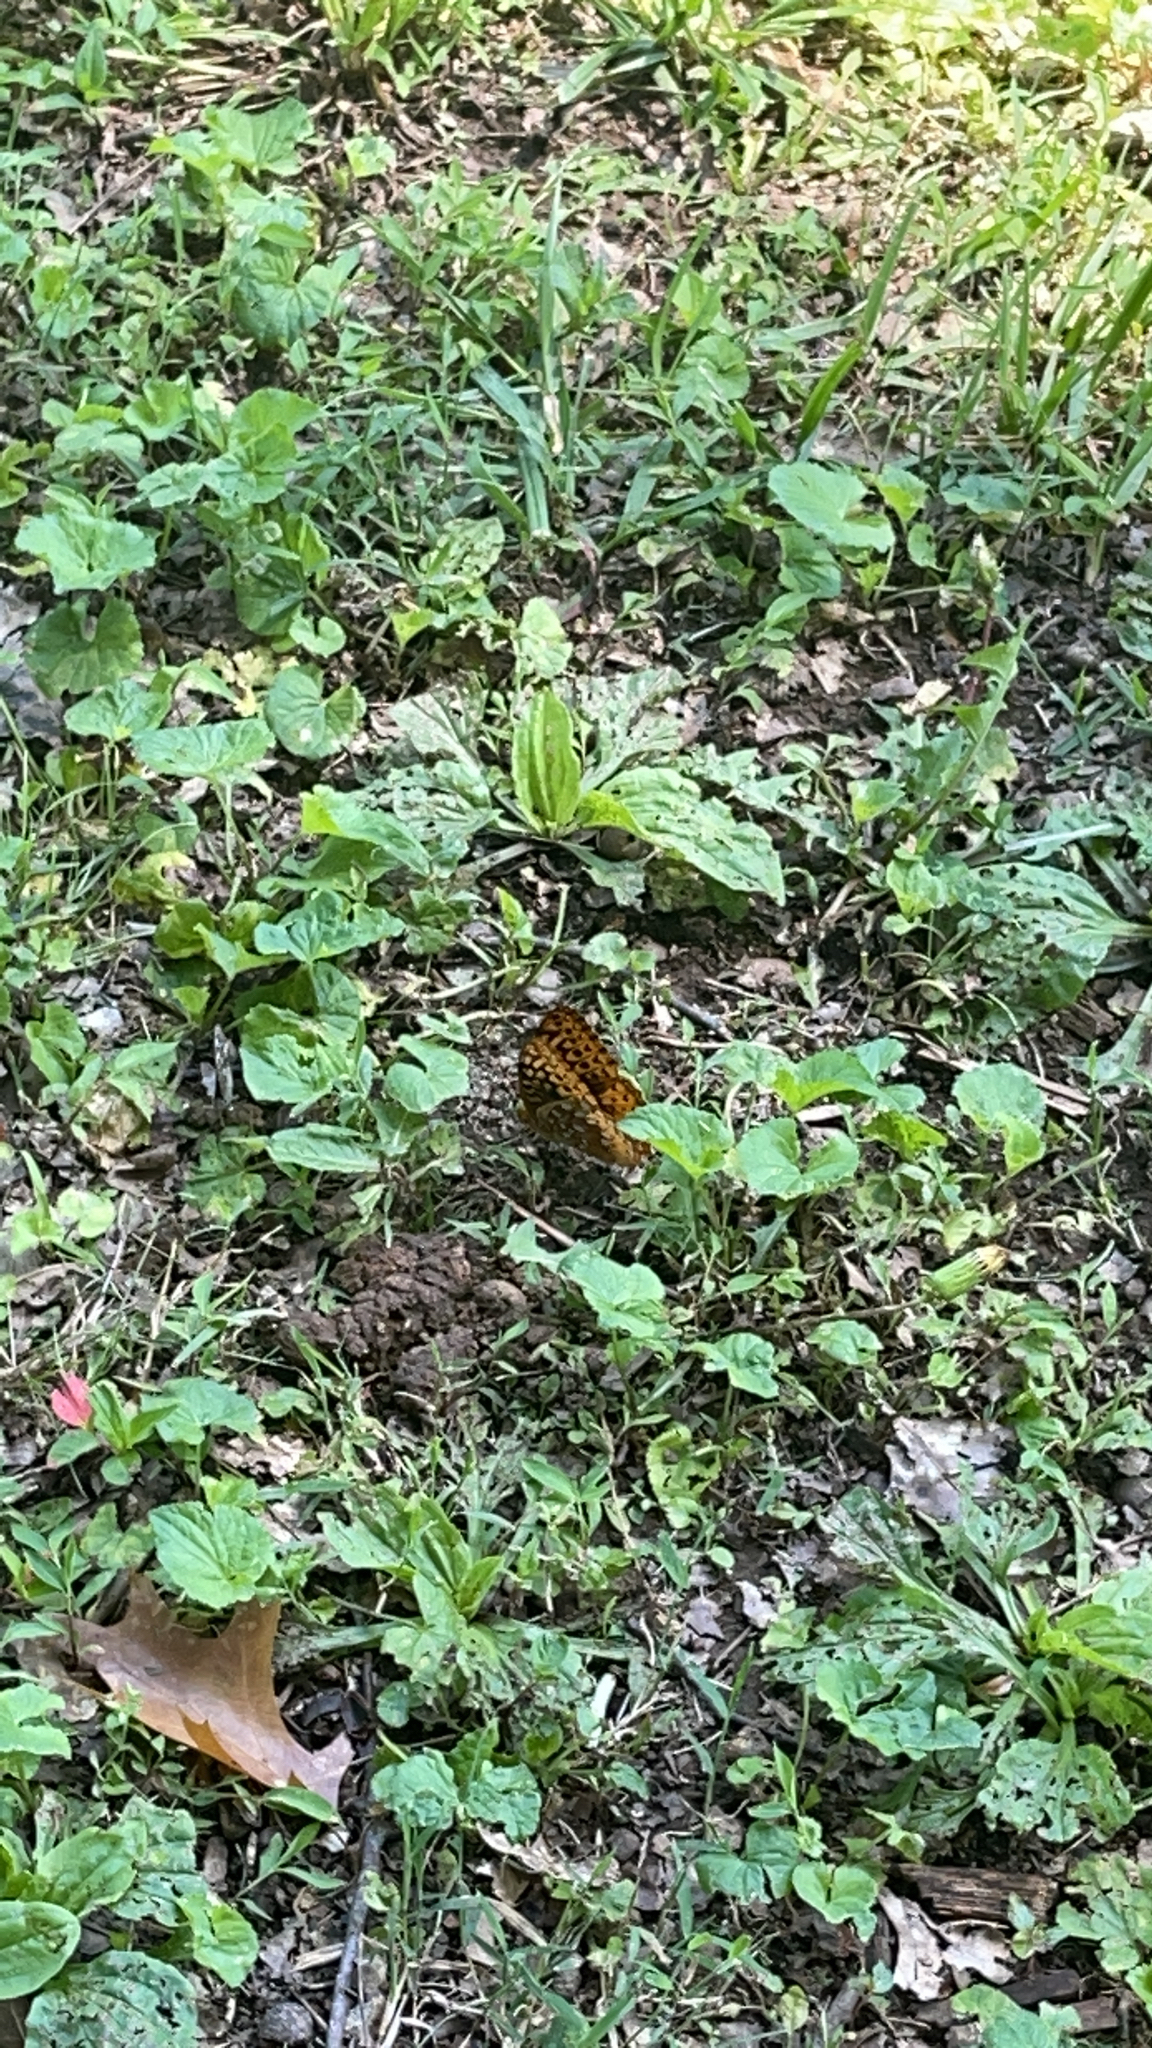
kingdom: Animalia
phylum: Arthropoda
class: Insecta
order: Lepidoptera
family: Nymphalidae
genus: Speyeria
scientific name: Speyeria cybele
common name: Great spangled fritillary
